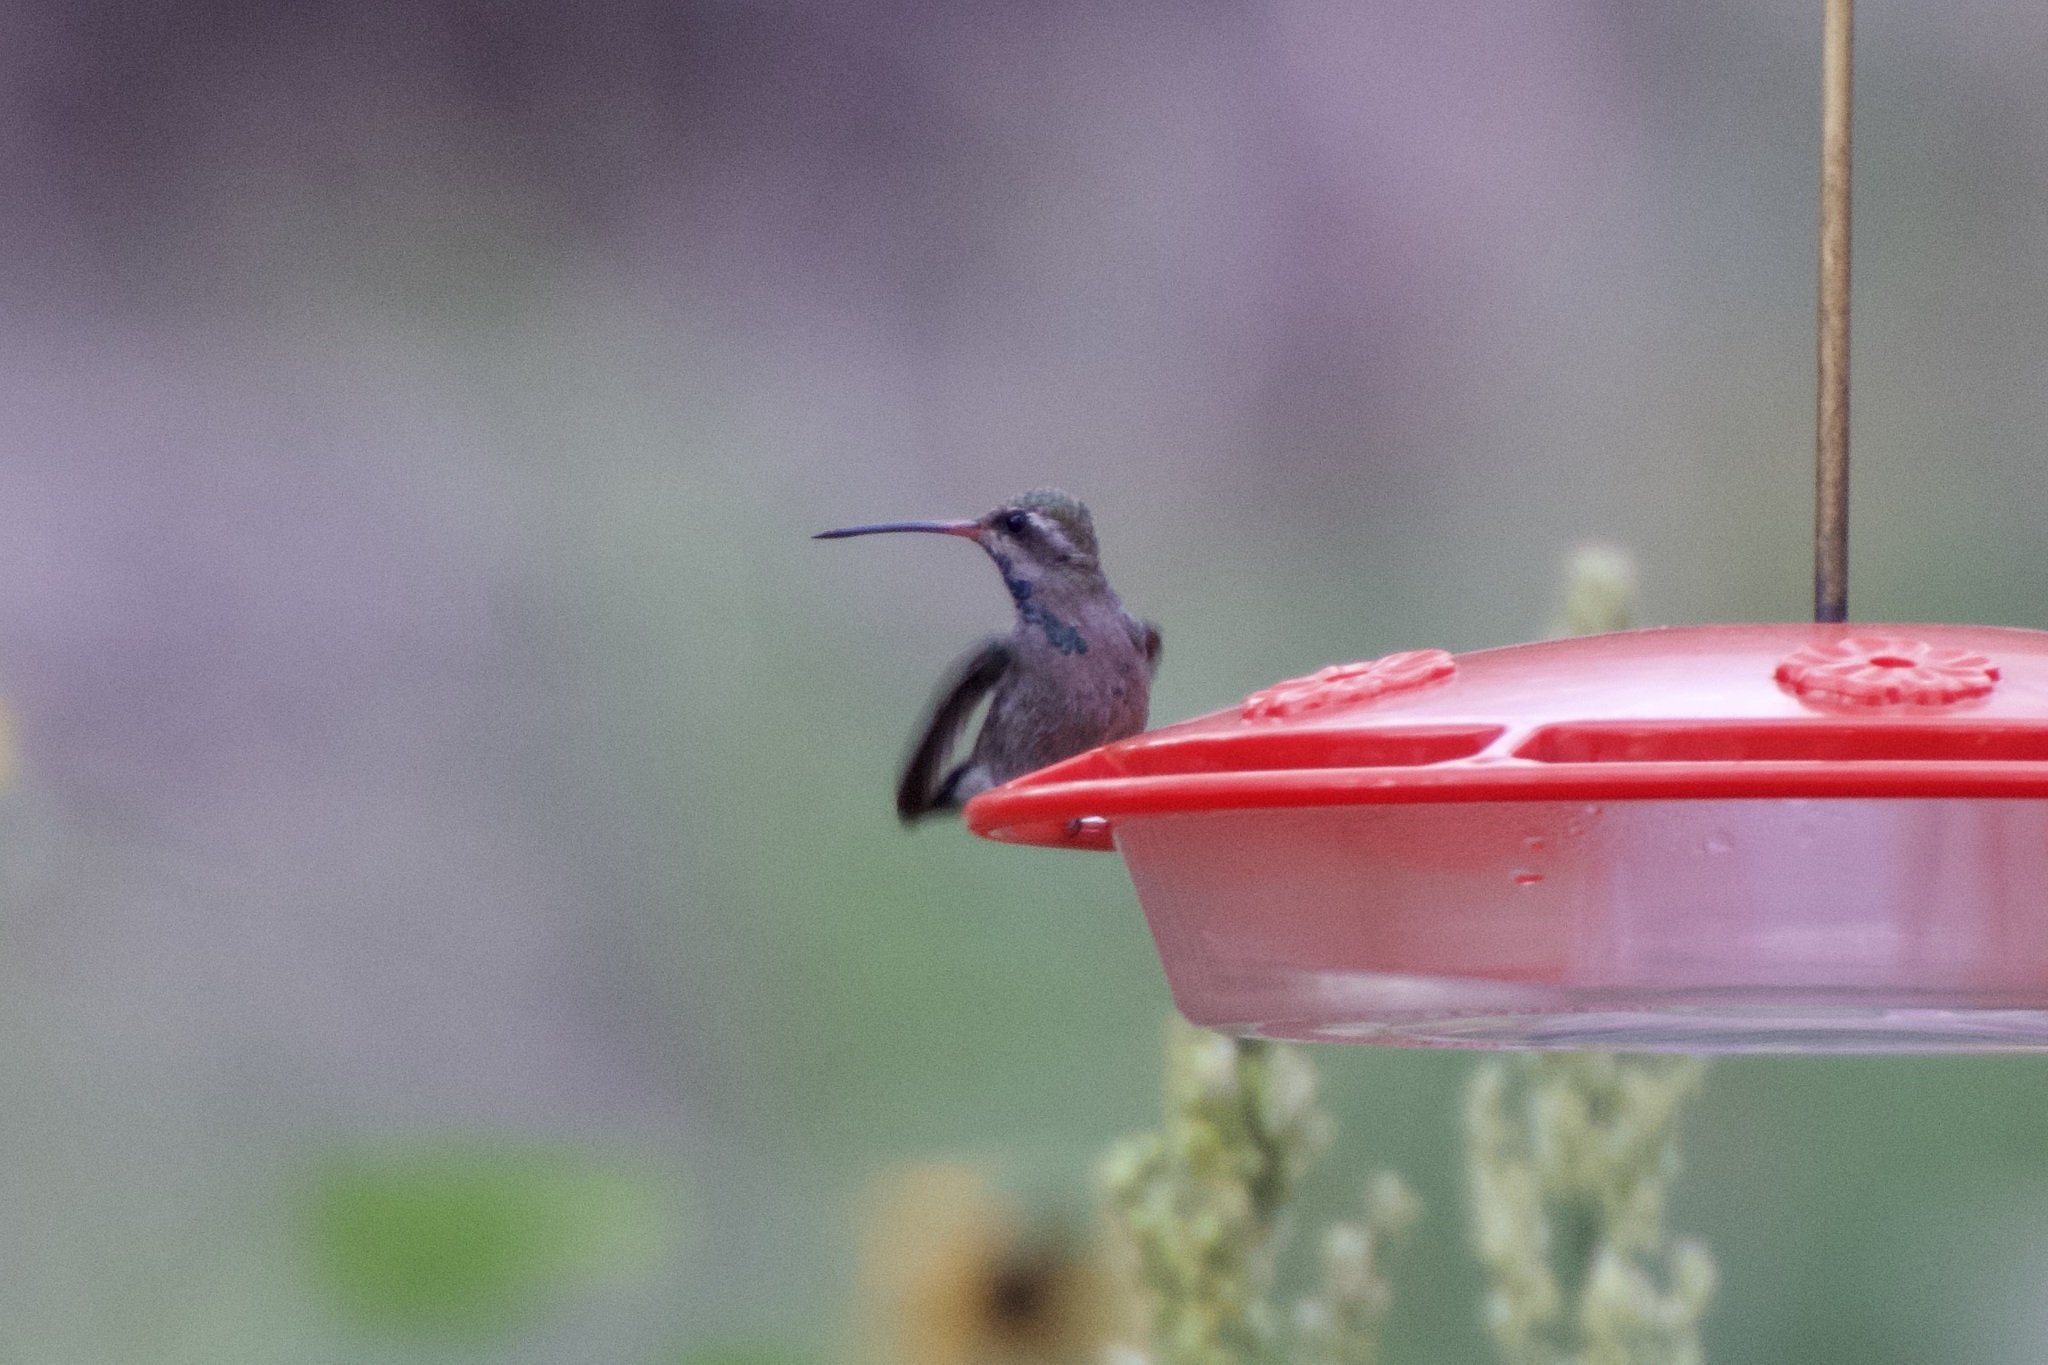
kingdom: Animalia
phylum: Chordata
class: Aves
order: Apodiformes
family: Trochilidae
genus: Cynanthus
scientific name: Cynanthus latirostris
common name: Broad-billed hummingbird
